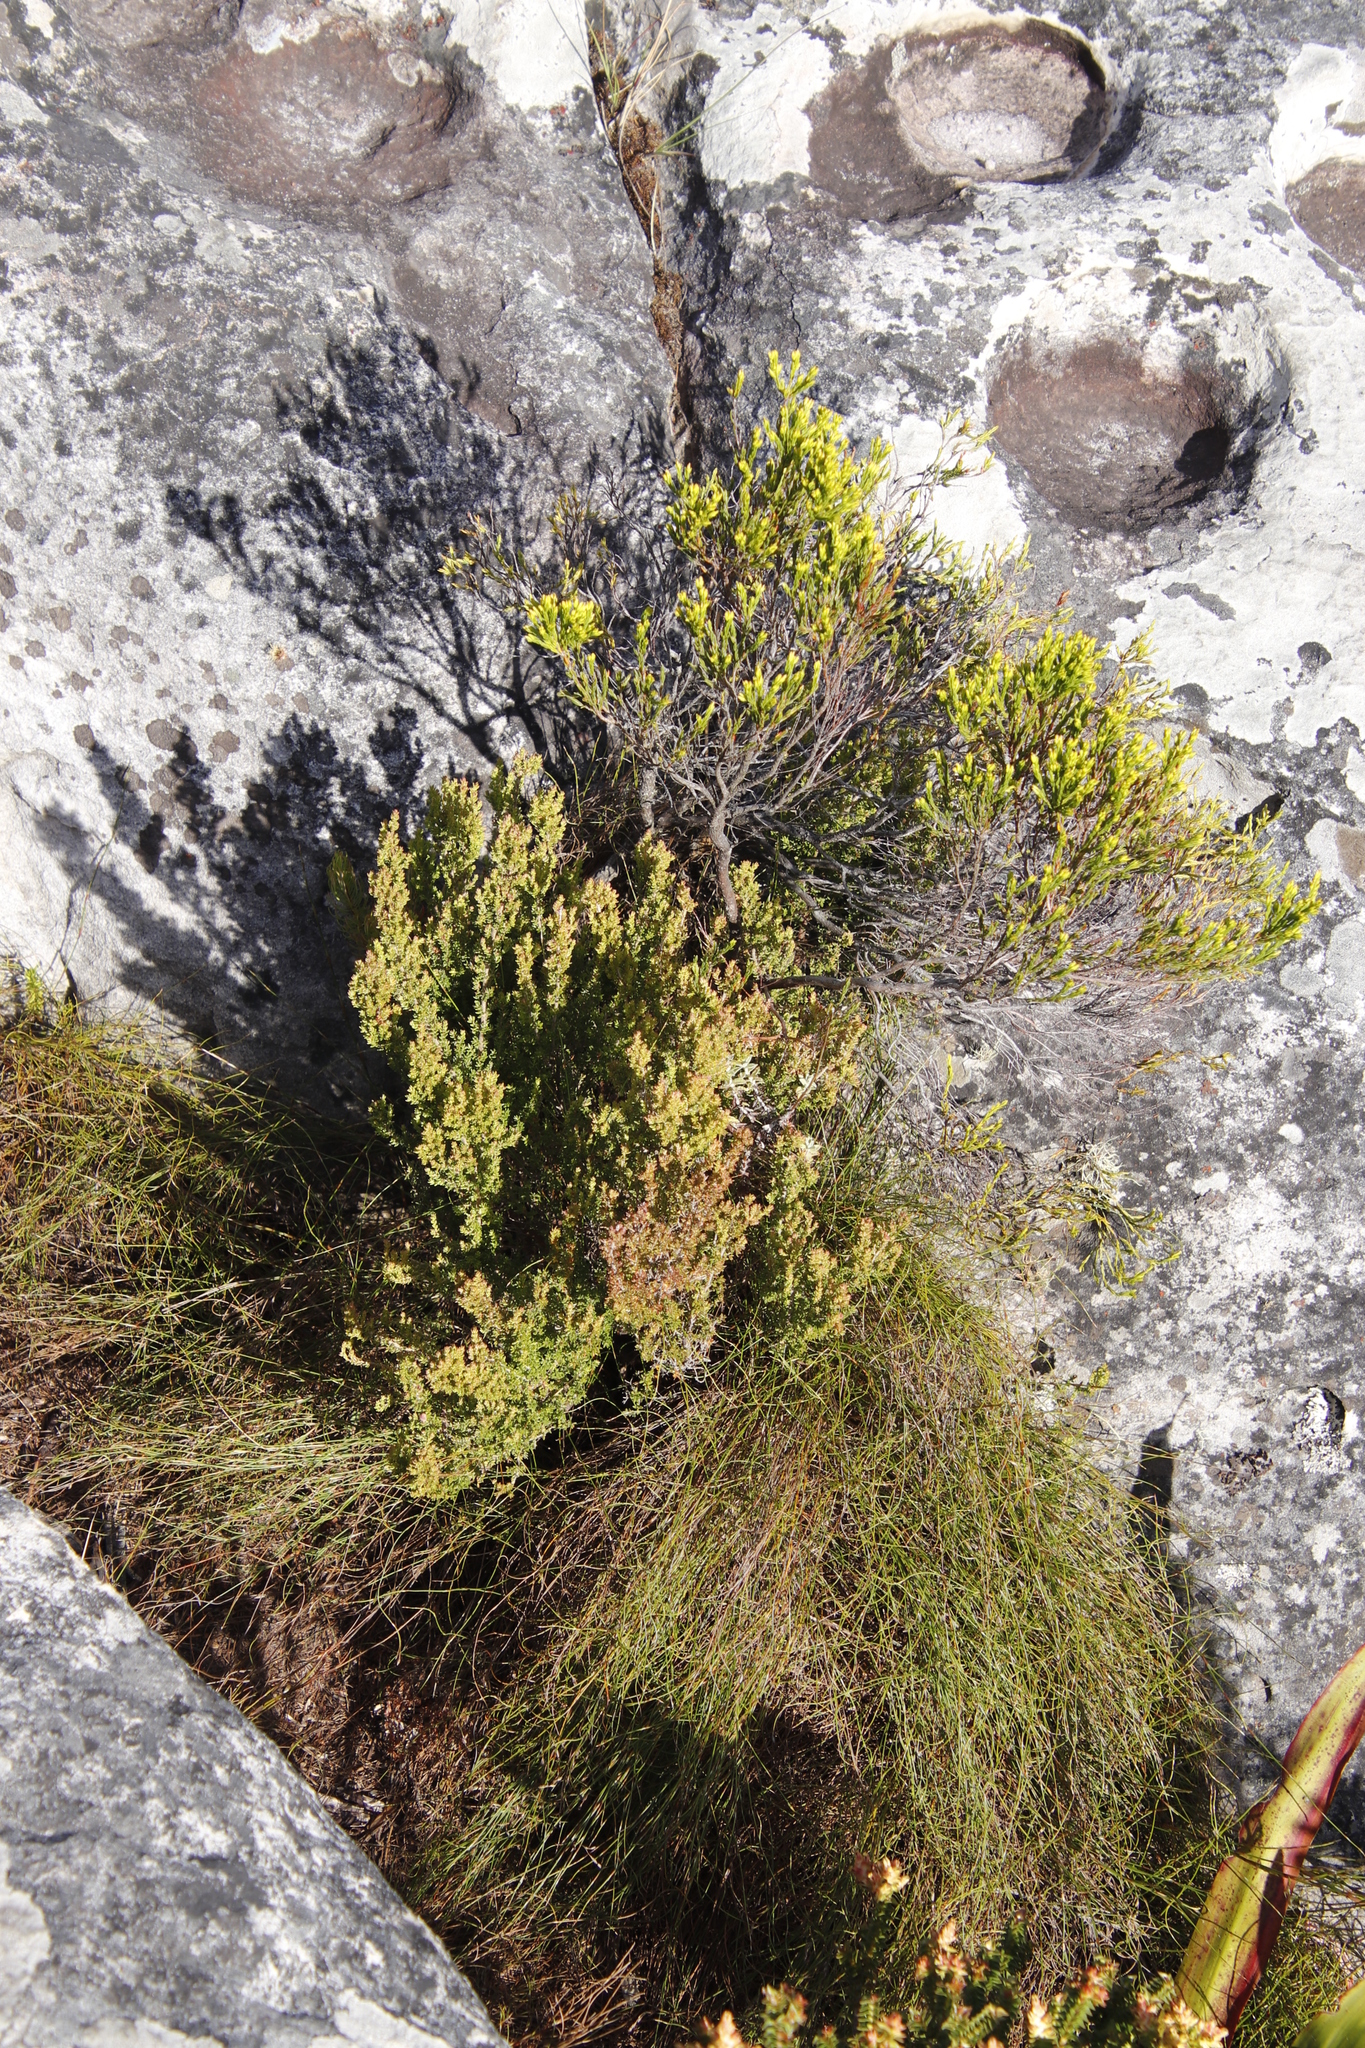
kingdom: Plantae
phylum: Tracheophyta
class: Magnoliopsida
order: Ericales
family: Ericaceae
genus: Erica
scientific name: Erica hispidula
